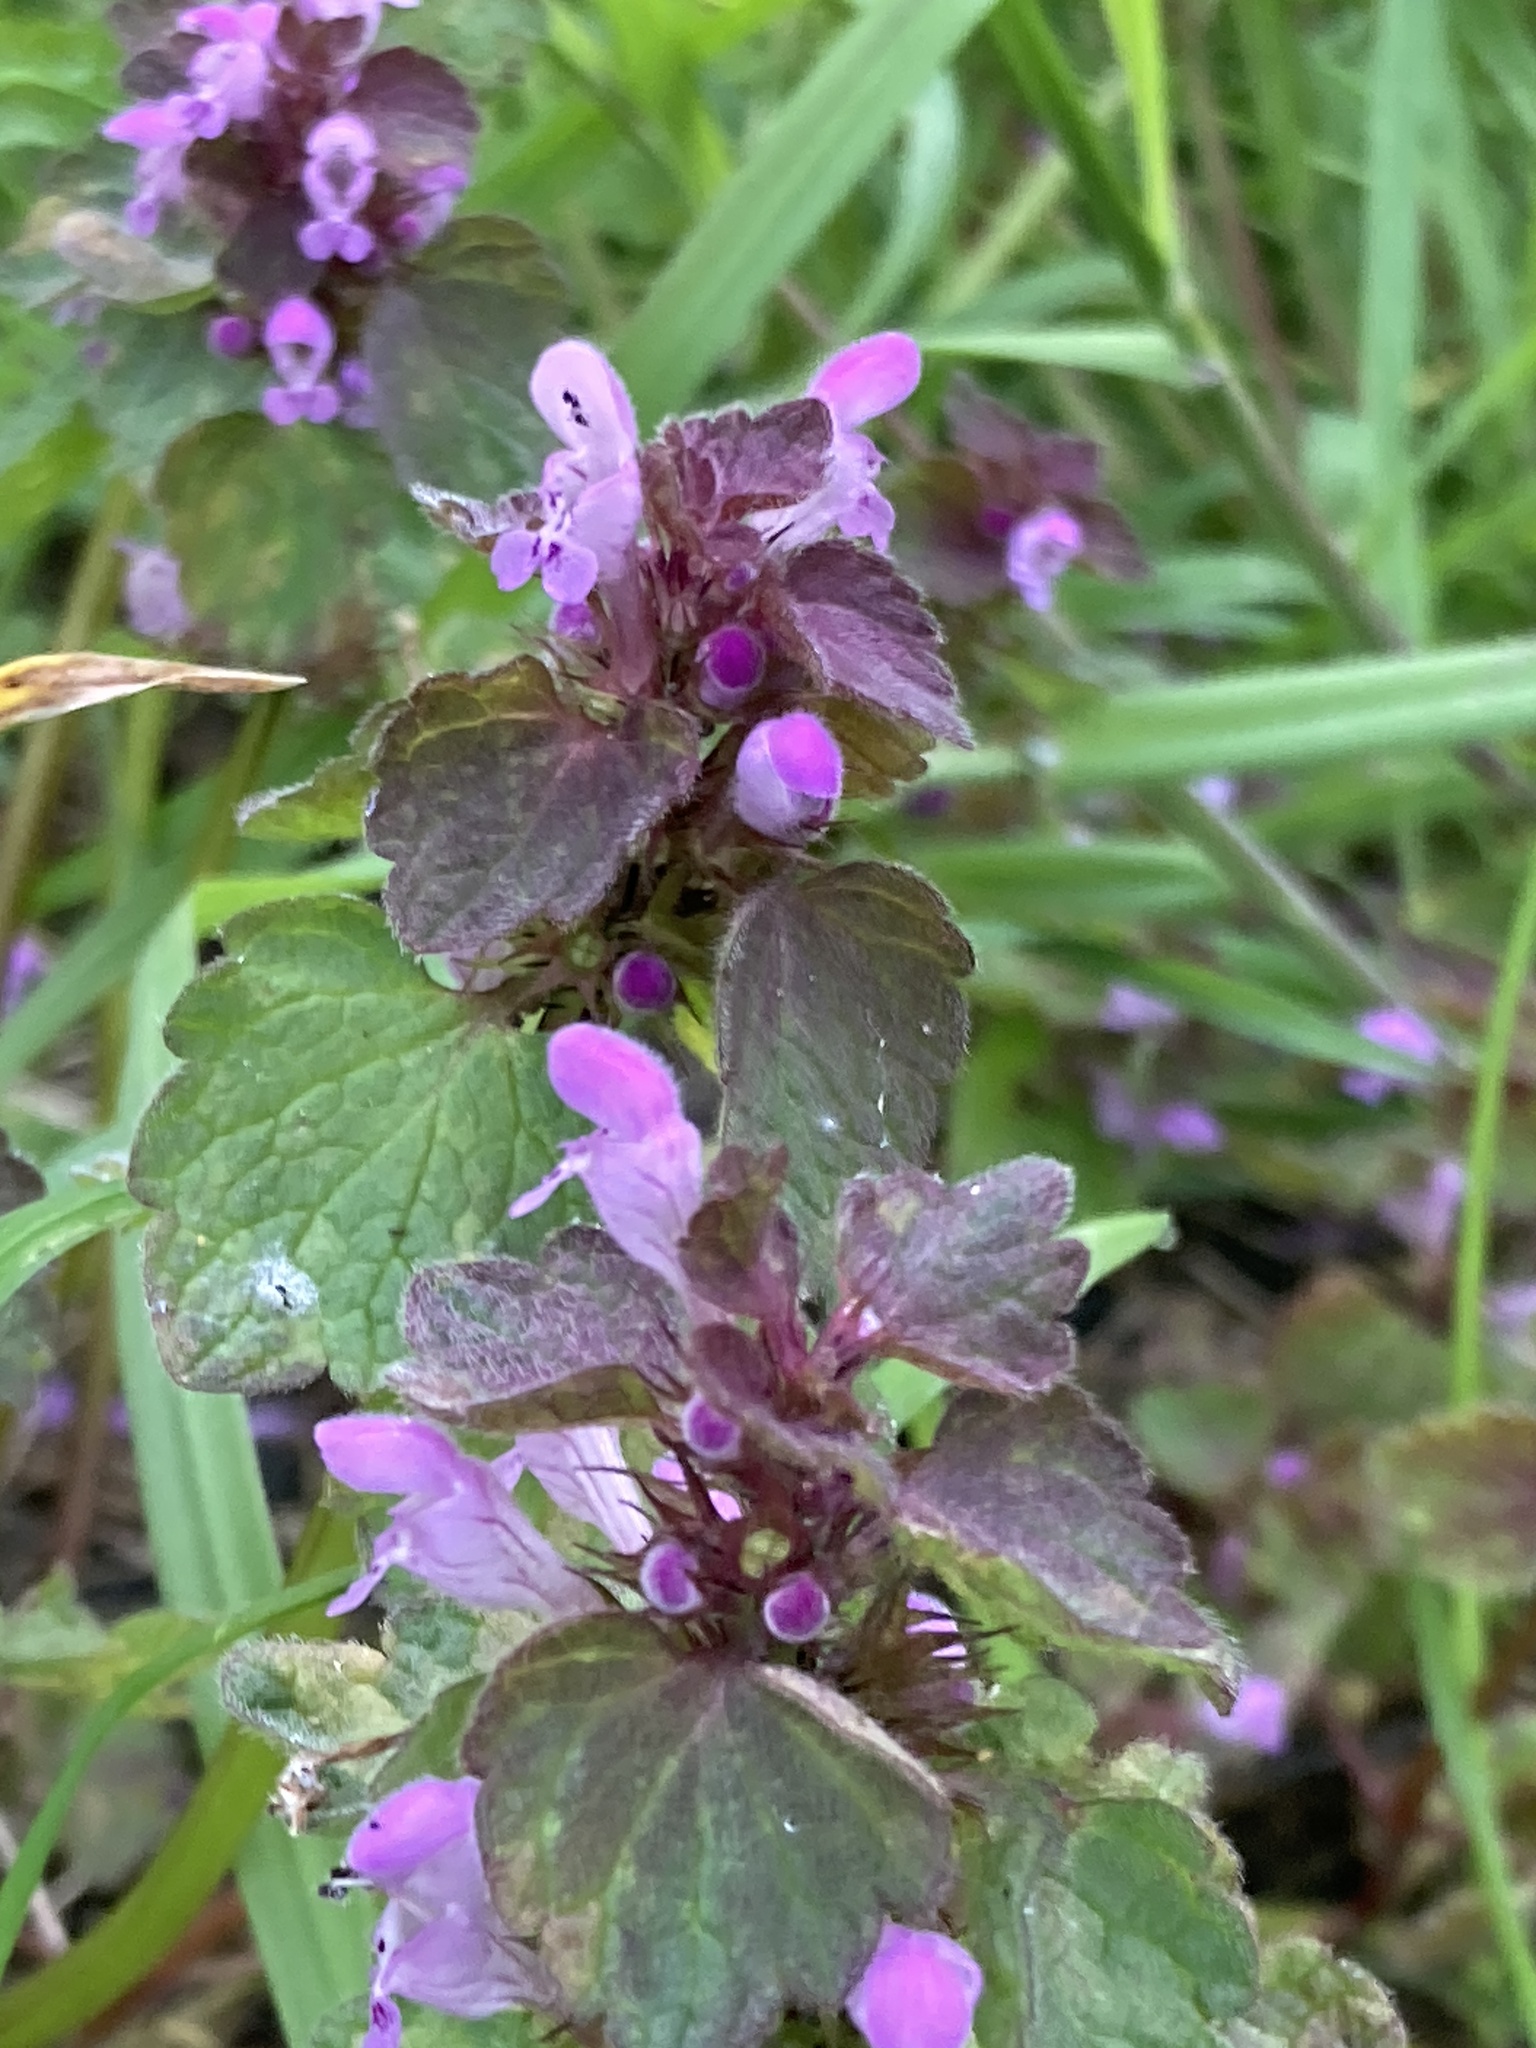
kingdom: Plantae
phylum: Tracheophyta
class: Magnoliopsida
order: Lamiales
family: Lamiaceae
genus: Lamium
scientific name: Lamium purpureum
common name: Red dead-nettle
